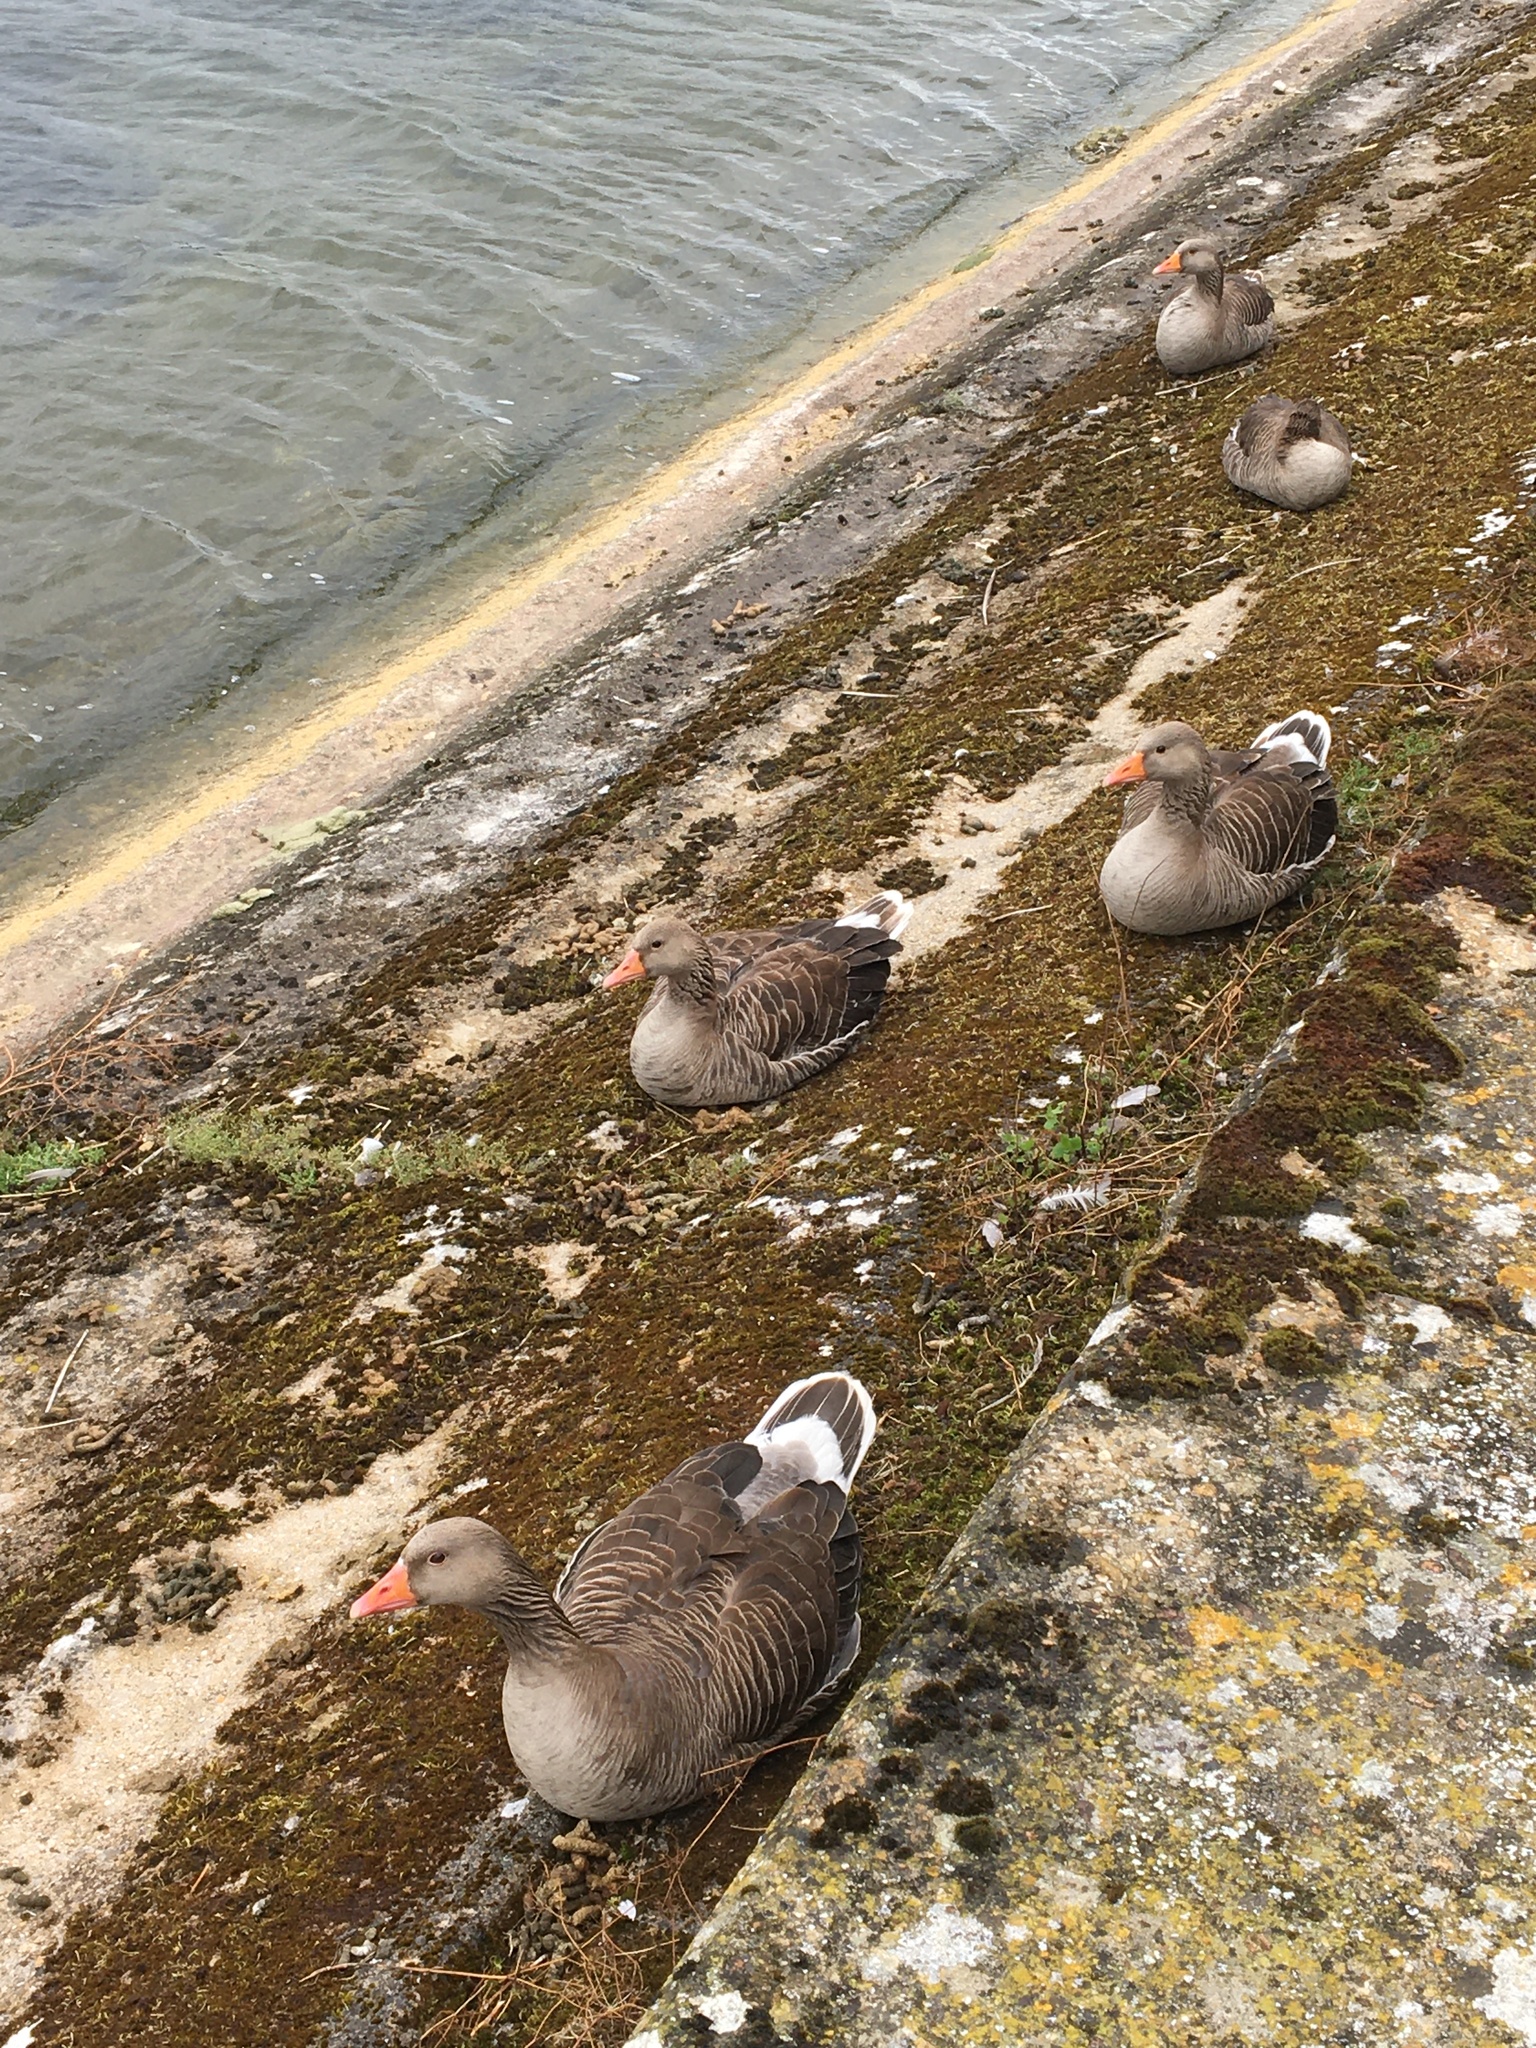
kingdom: Animalia
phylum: Chordata
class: Aves
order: Anseriformes
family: Anatidae
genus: Anser
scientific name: Anser anser
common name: Greylag goose
